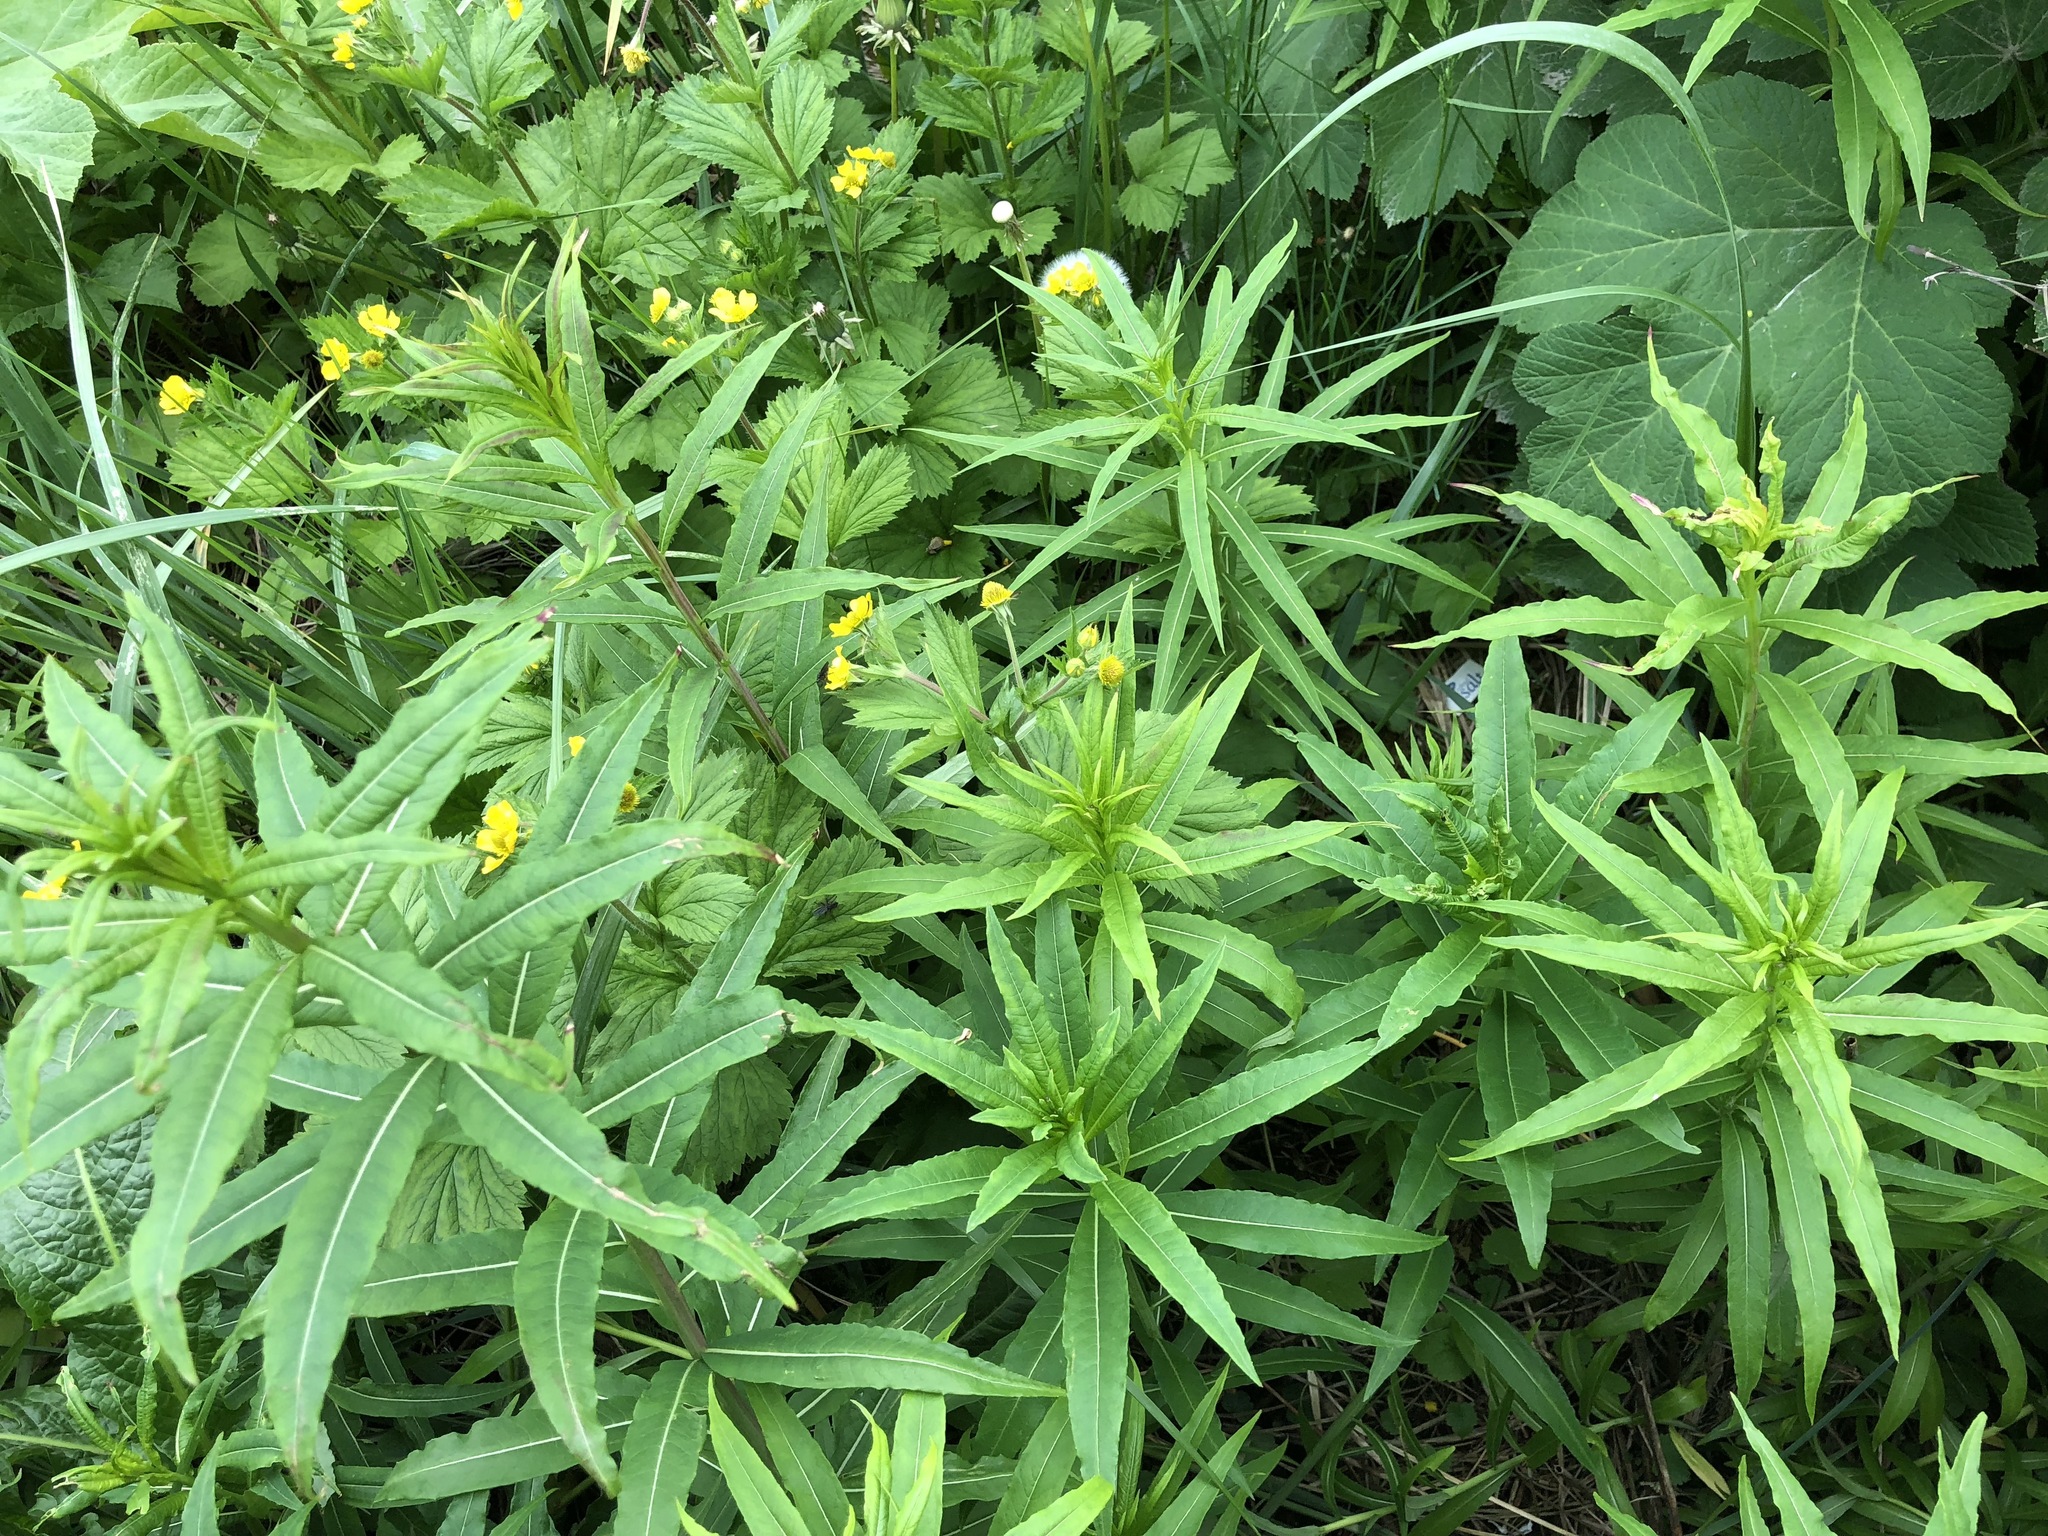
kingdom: Plantae
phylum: Tracheophyta
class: Magnoliopsida
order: Myrtales
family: Onagraceae
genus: Chamaenerion
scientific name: Chamaenerion angustifolium
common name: Fireweed
